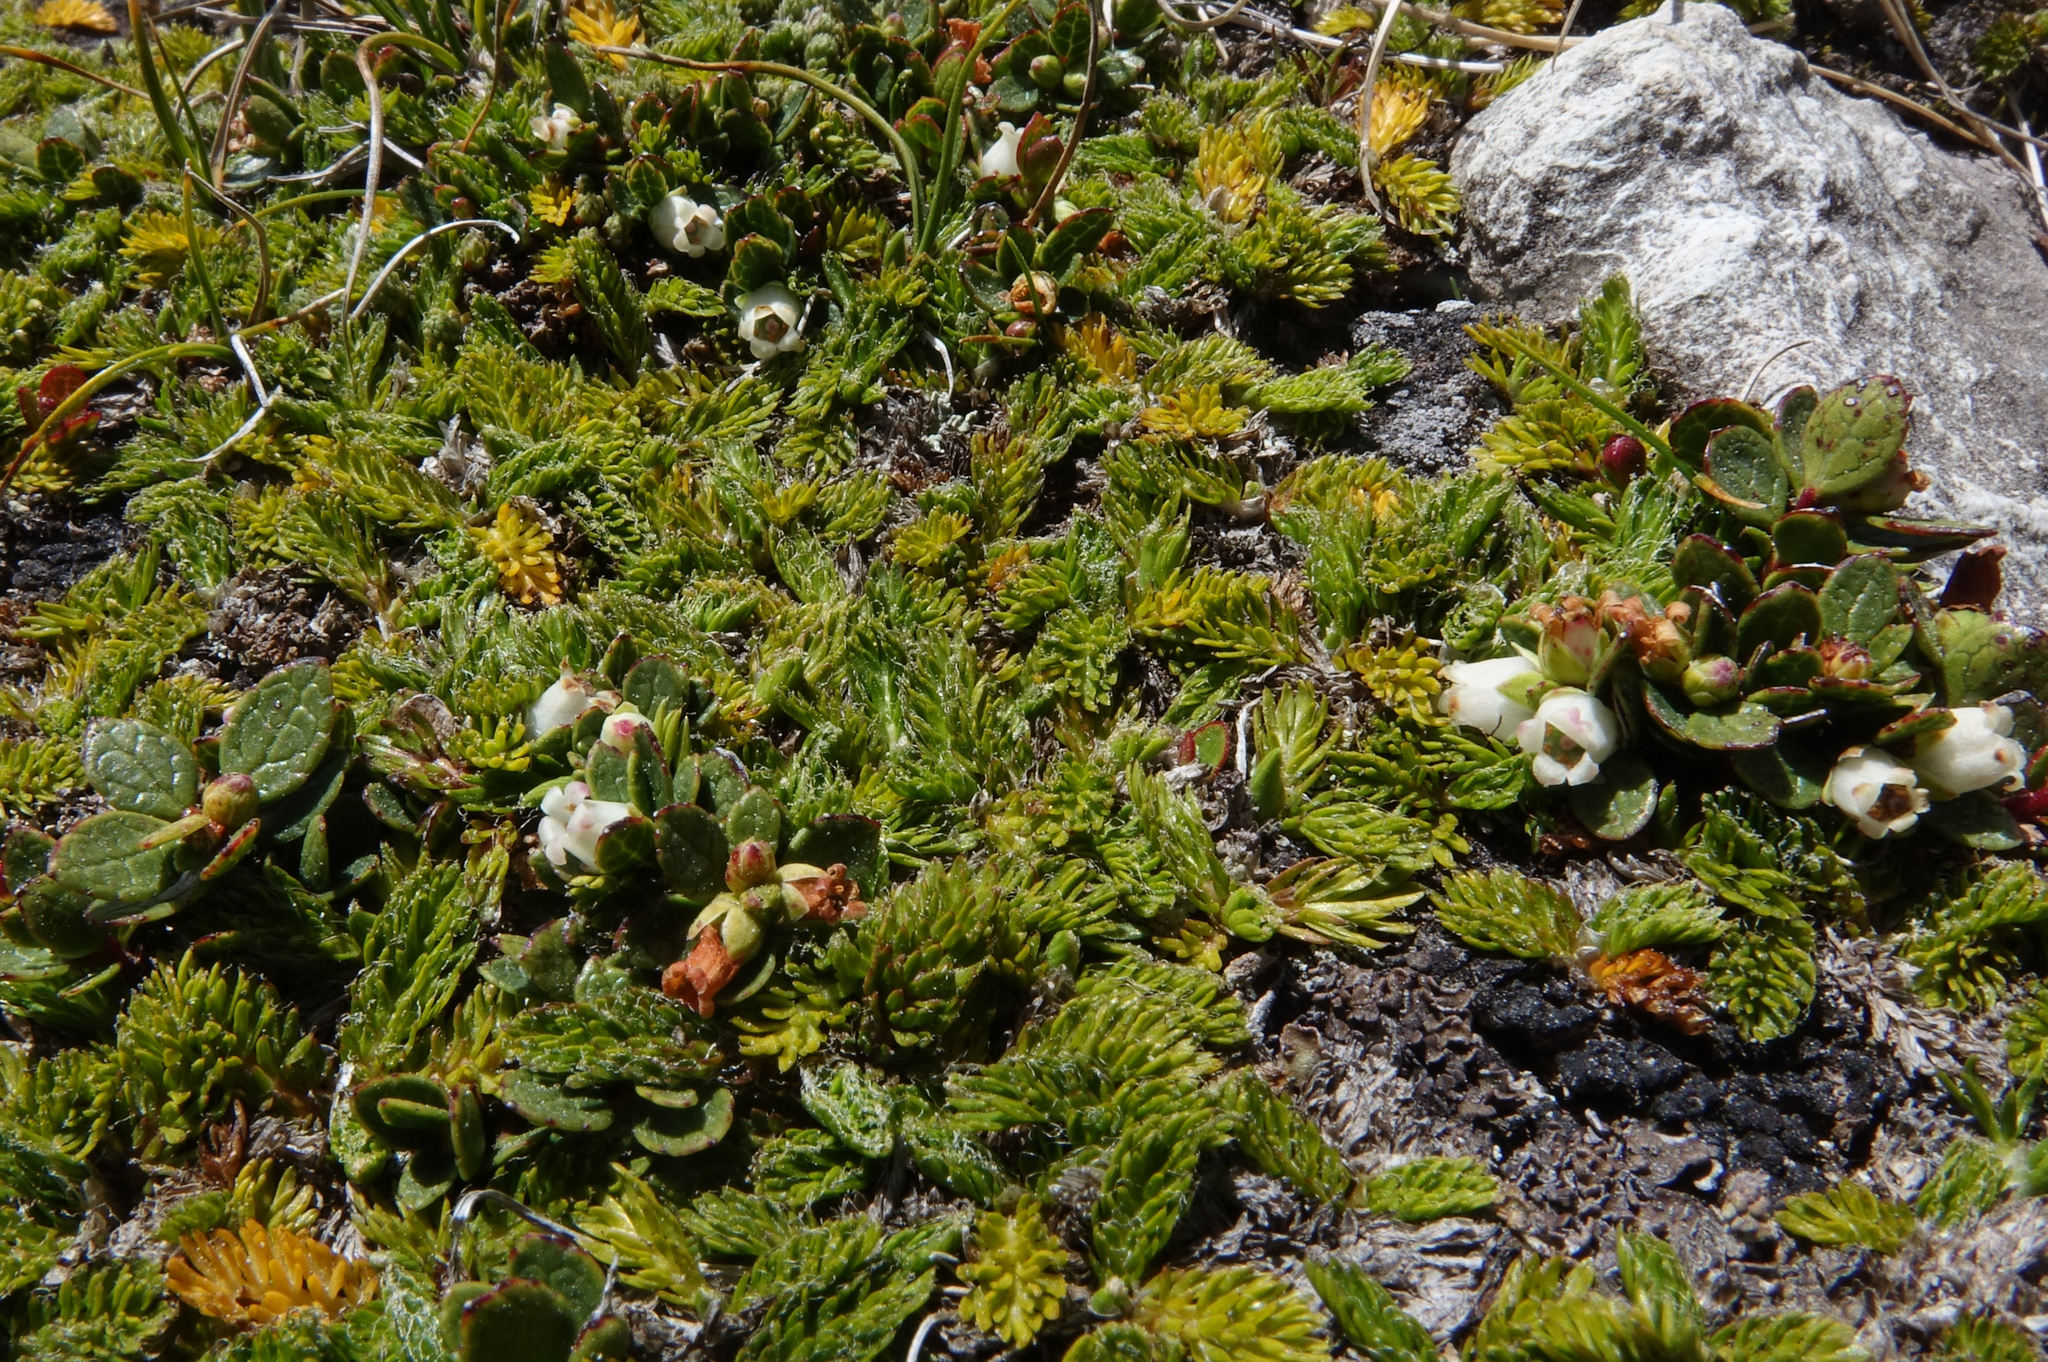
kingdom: Plantae
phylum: Tracheophyta
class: Magnoliopsida
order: Ericales
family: Ericaceae
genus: Gaultheria
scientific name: Gaultheria nubicola
